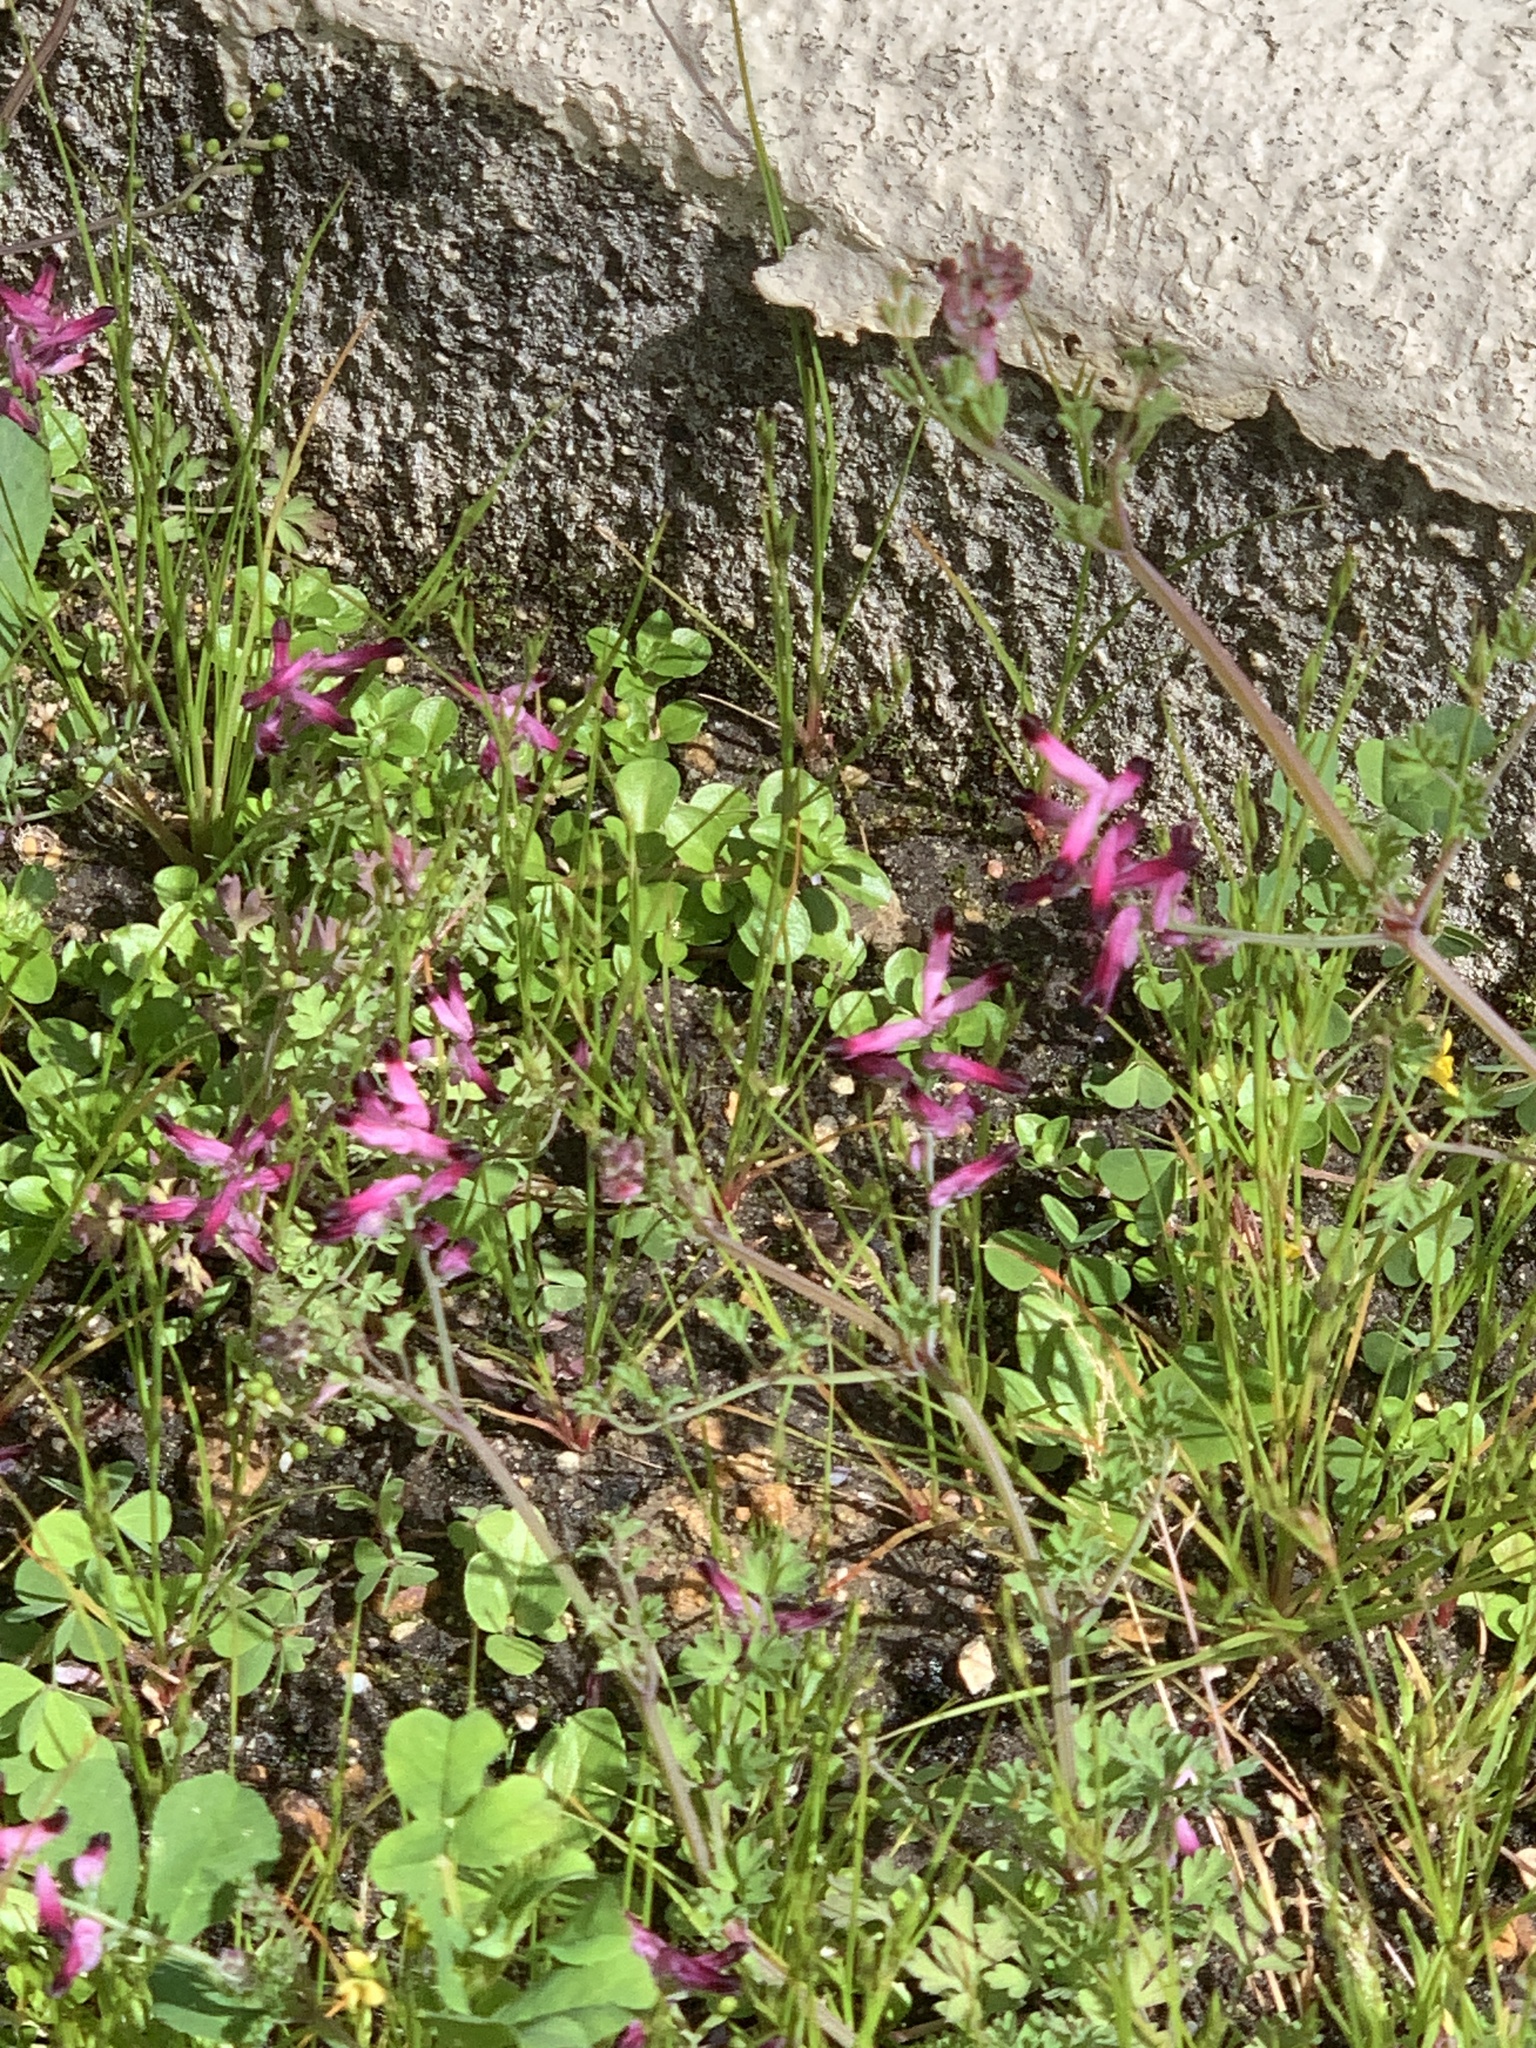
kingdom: Plantae
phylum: Tracheophyta
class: Magnoliopsida
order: Ranunculales
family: Papaveraceae
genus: Fumaria
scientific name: Fumaria muralis
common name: Common ramping-fumitory
